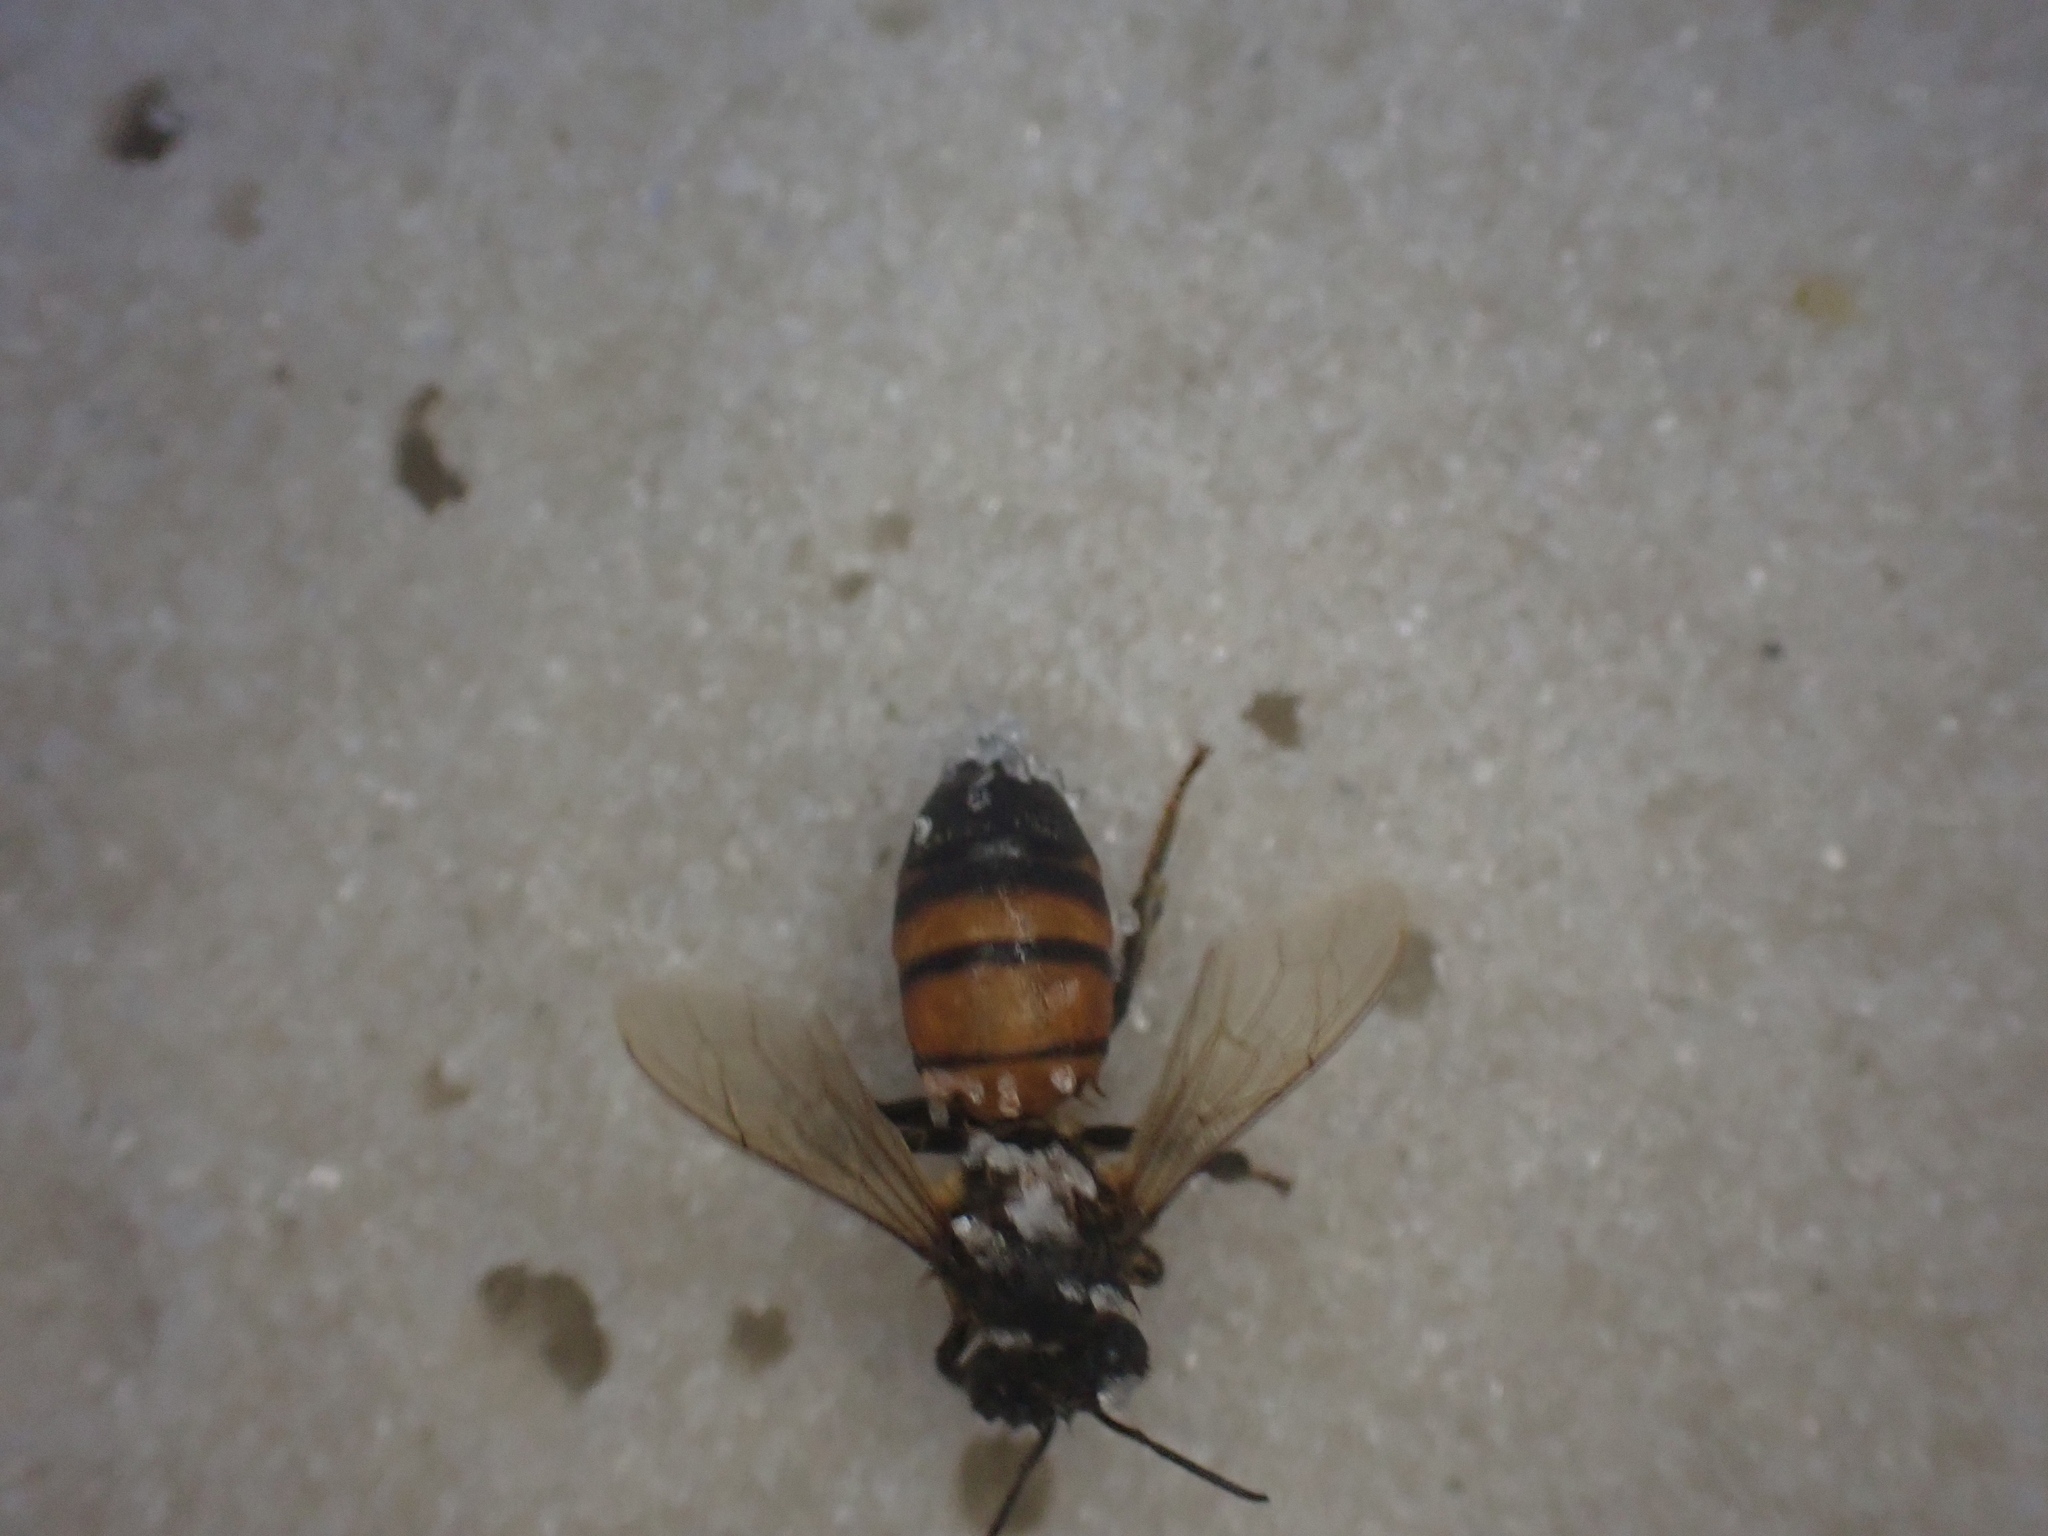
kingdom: Animalia
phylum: Arthropoda
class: Insecta
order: Hymenoptera
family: Apidae
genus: Apis
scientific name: Apis mellifera
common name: Honey bee
